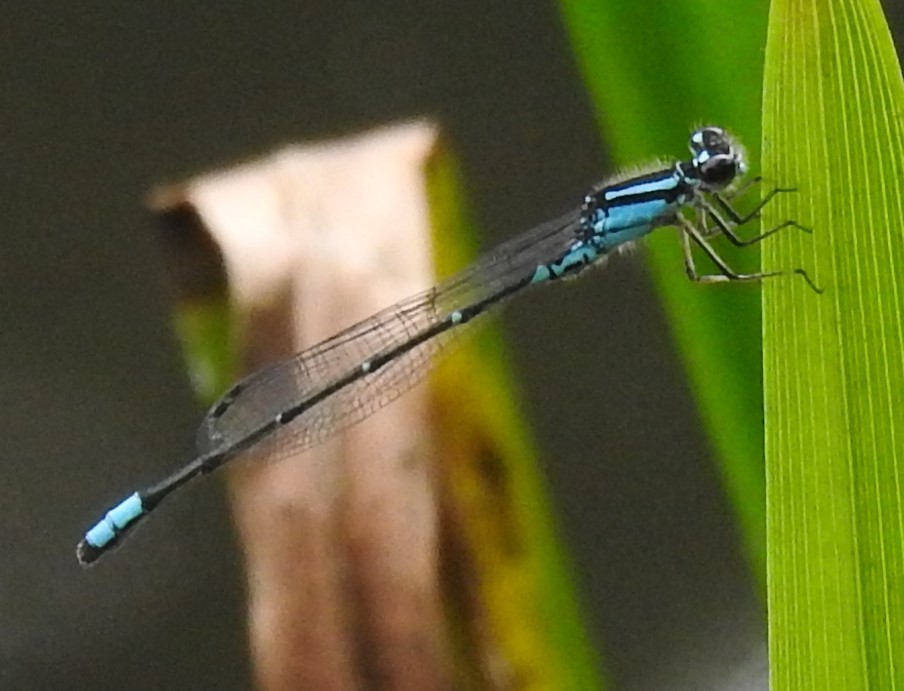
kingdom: Animalia
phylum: Arthropoda
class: Insecta
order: Odonata
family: Coenagrionidae
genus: Enallagma
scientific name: Enallagma geminatum
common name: Skimming bluet
